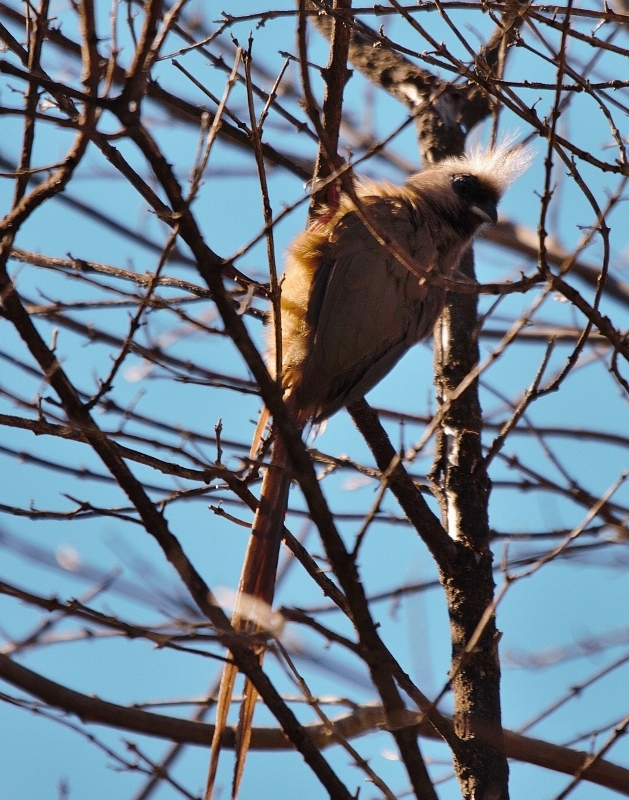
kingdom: Animalia
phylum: Chordata
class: Aves
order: Coliiformes
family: Coliidae
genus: Colius
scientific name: Colius striatus
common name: Speckled mousebird
